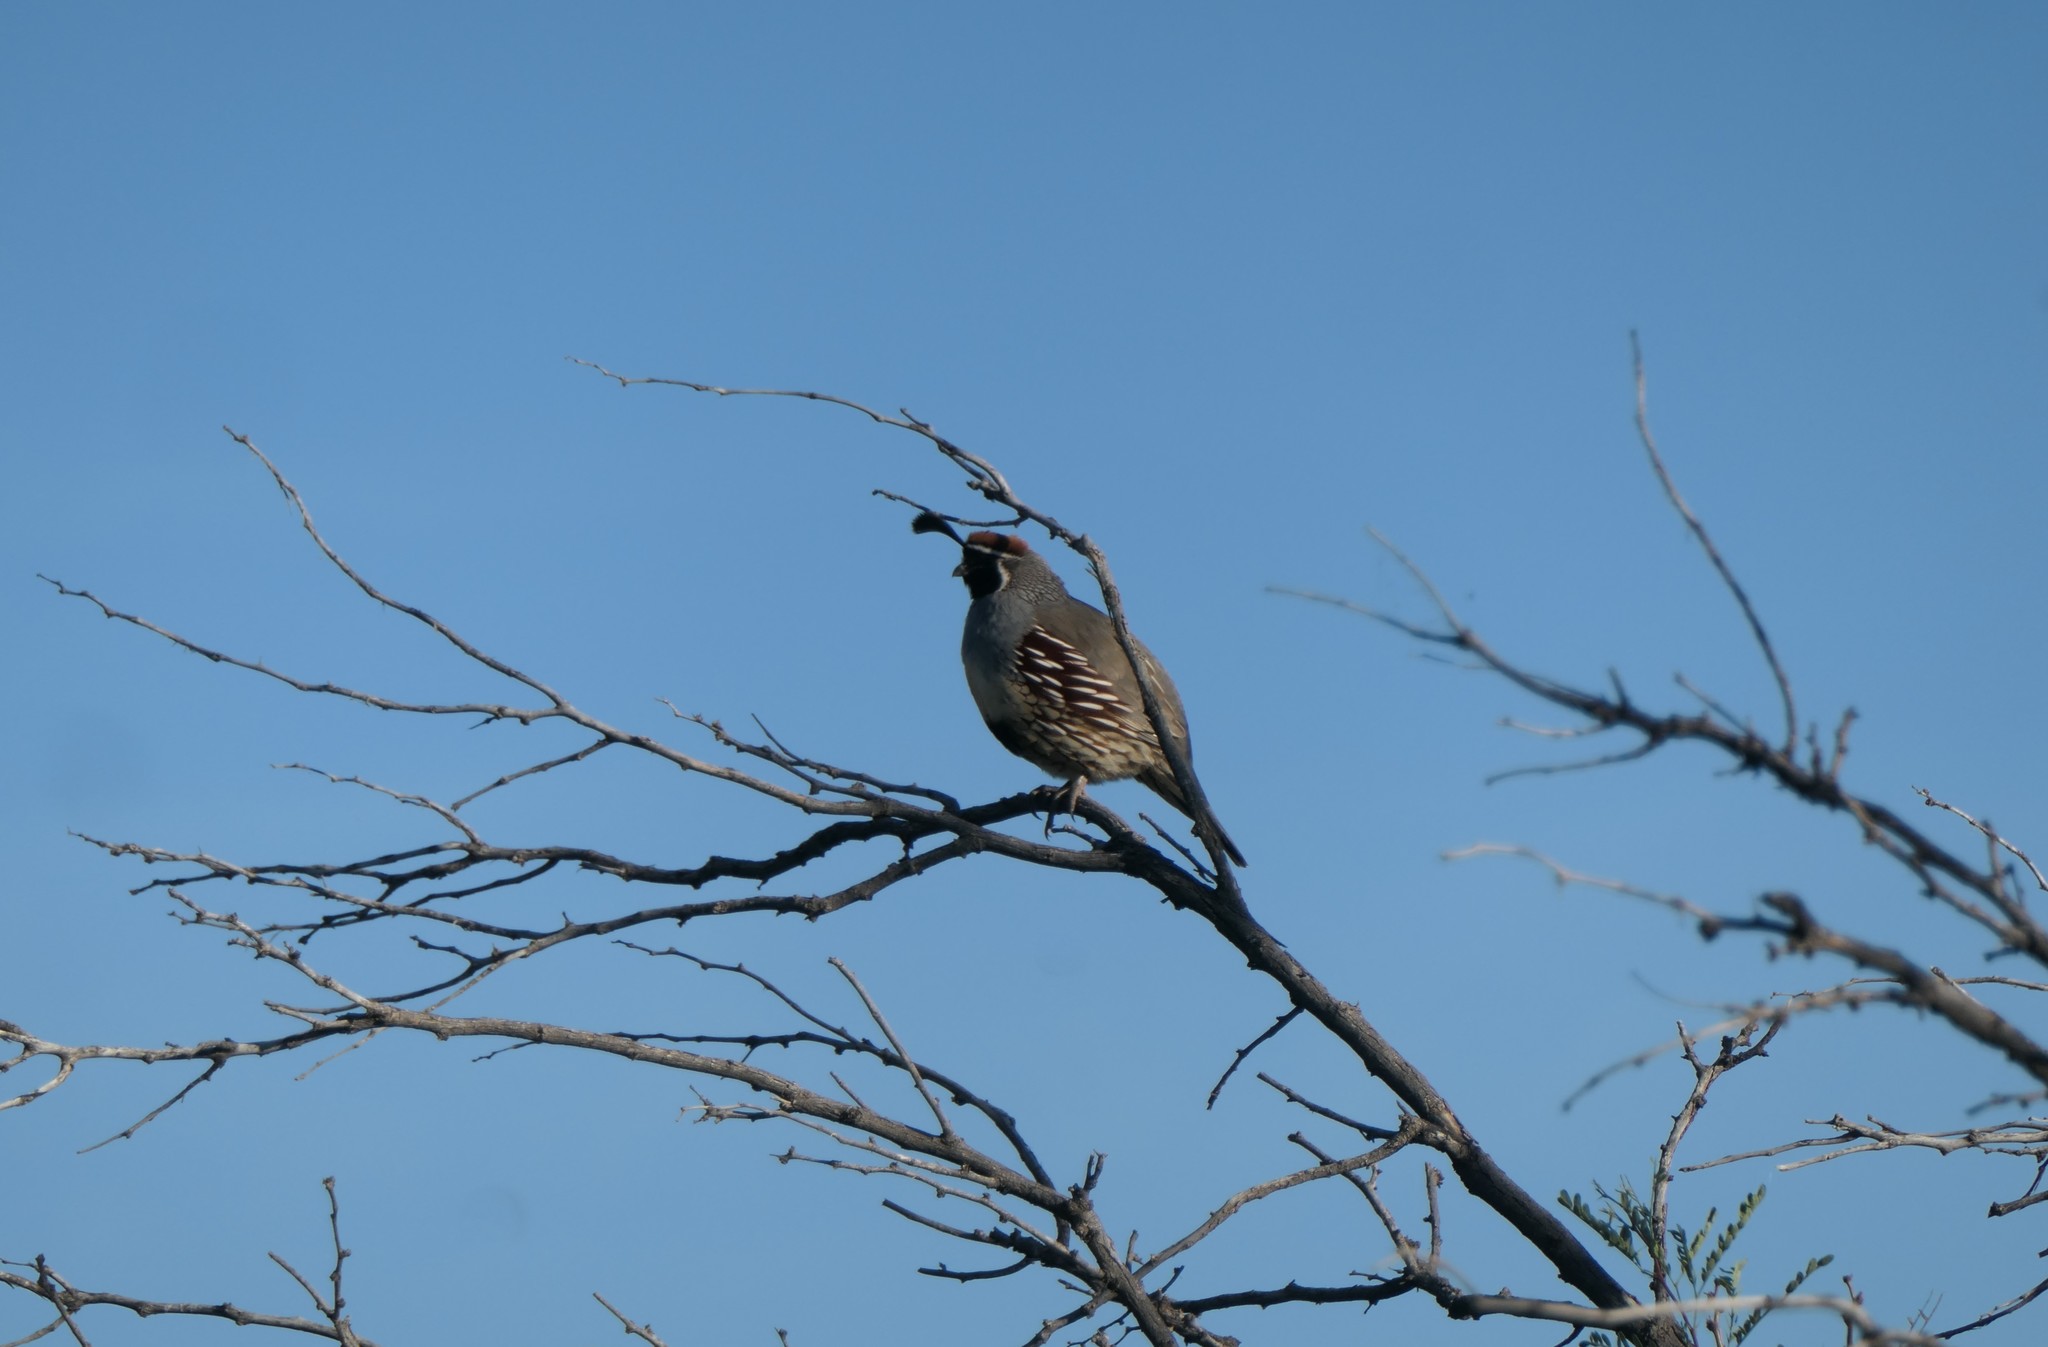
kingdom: Animalia
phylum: Chordata
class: Aves
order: Galliformes
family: Odontophoridae
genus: Callipepla
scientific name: Callipepla gambelii
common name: Gambel's quail
